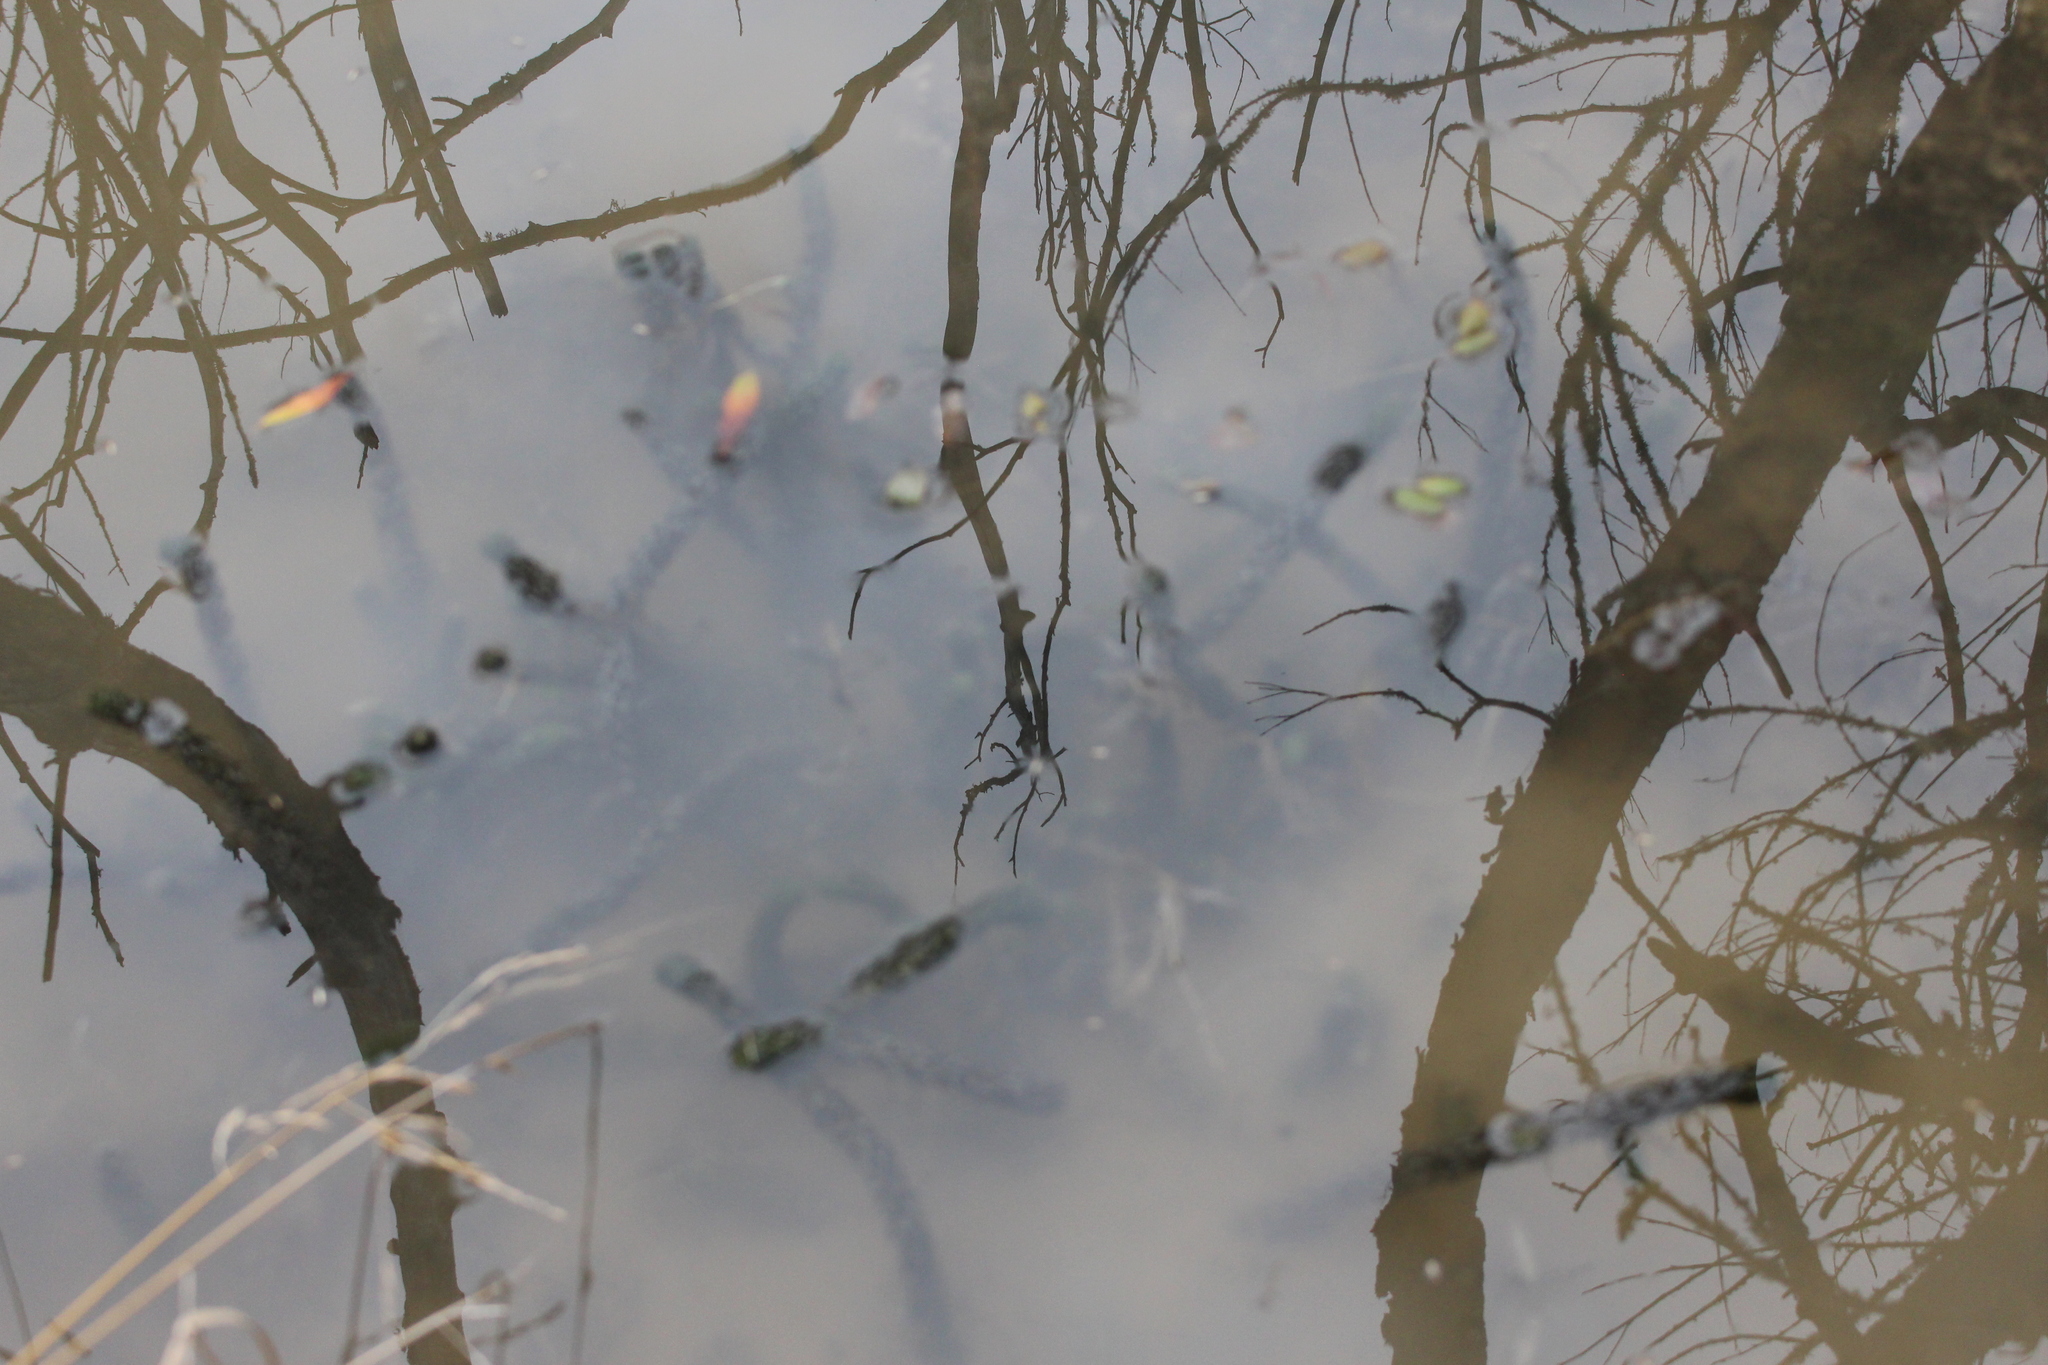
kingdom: Plantae
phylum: Tracheophyta
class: Liliopsida
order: Alismatales
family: Hydrocharitaceae
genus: Lagarosiphon
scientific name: Lagarosiphon major
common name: Curly waterweed
